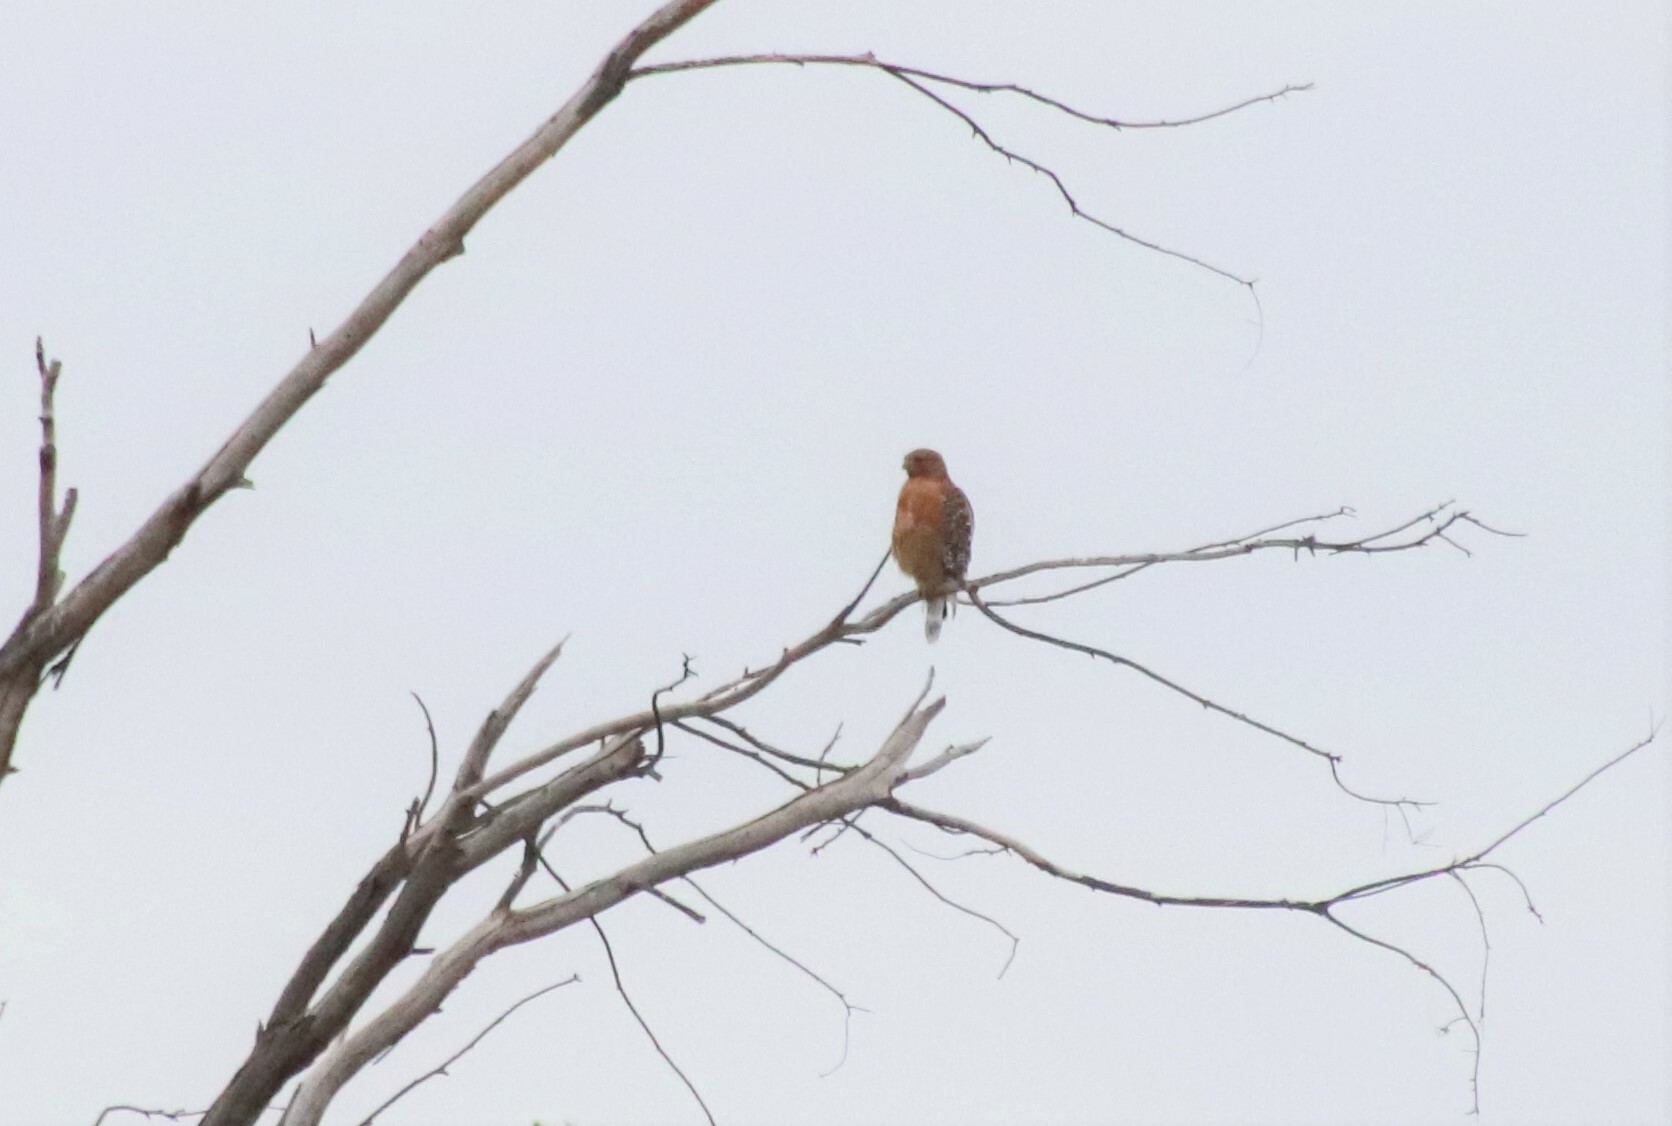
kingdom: Animalia
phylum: Chordata
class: Aves
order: Accipitriformes
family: Accipitridae
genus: Buteo
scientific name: Buteo lineatus
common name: Red-shouldered hawk
